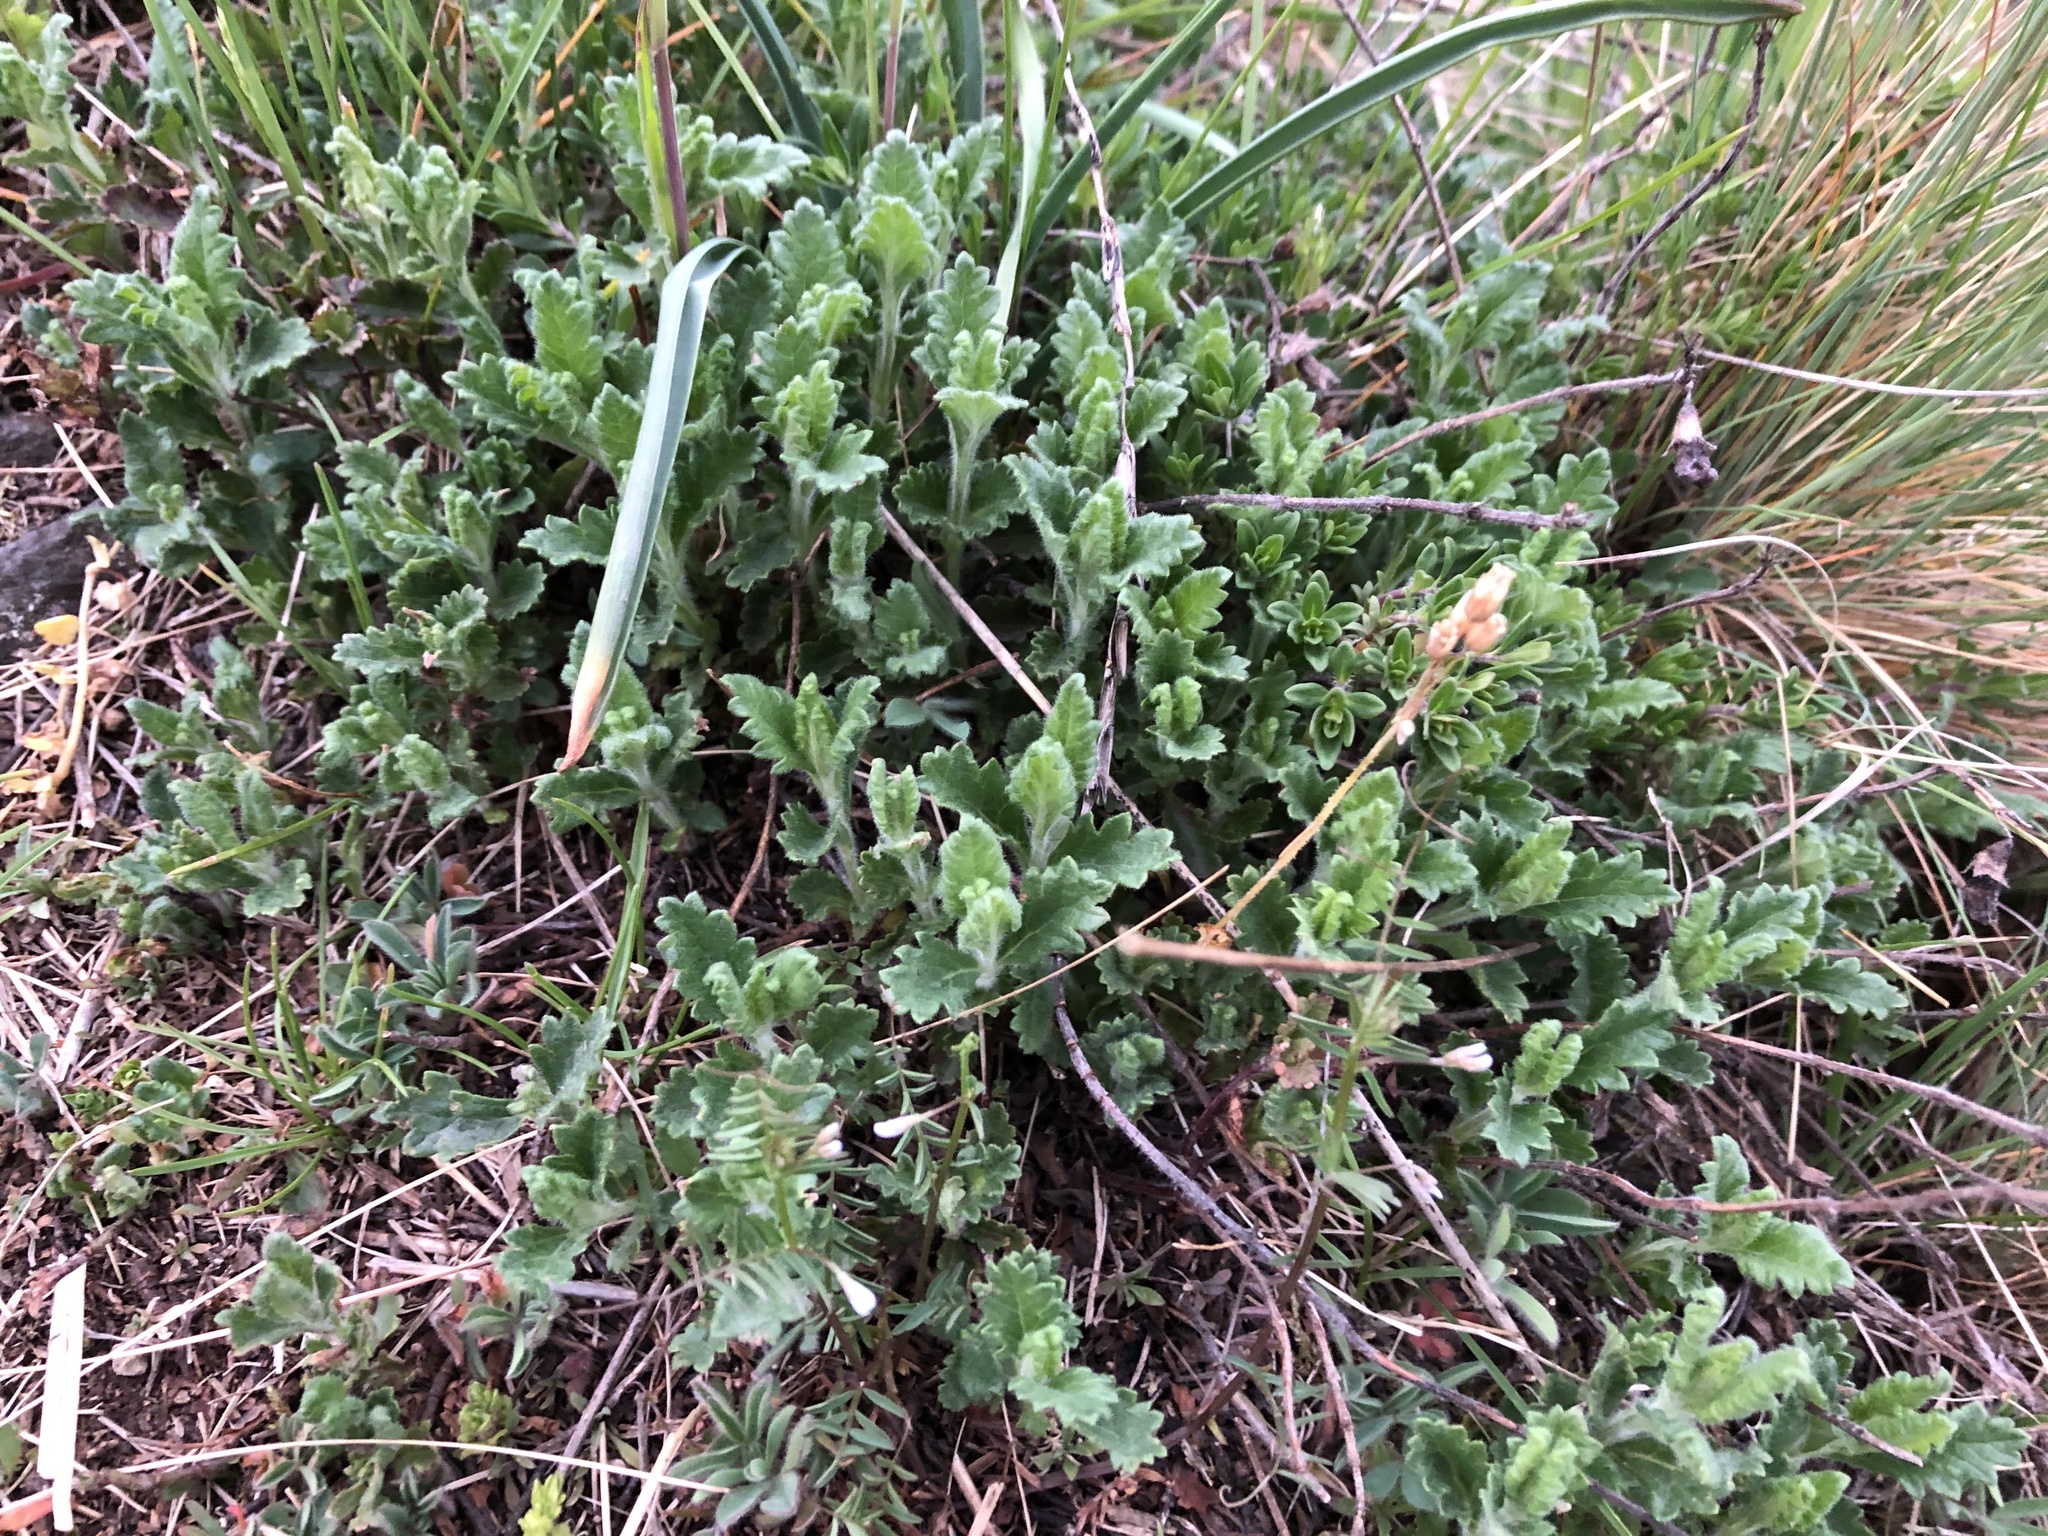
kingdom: Plantae
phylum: Tracheophyta
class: Magnoliopsida
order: Lamiales
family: Lamiaceae
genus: Teucrium
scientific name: Teucrium chamaedrys
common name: Wall germander
